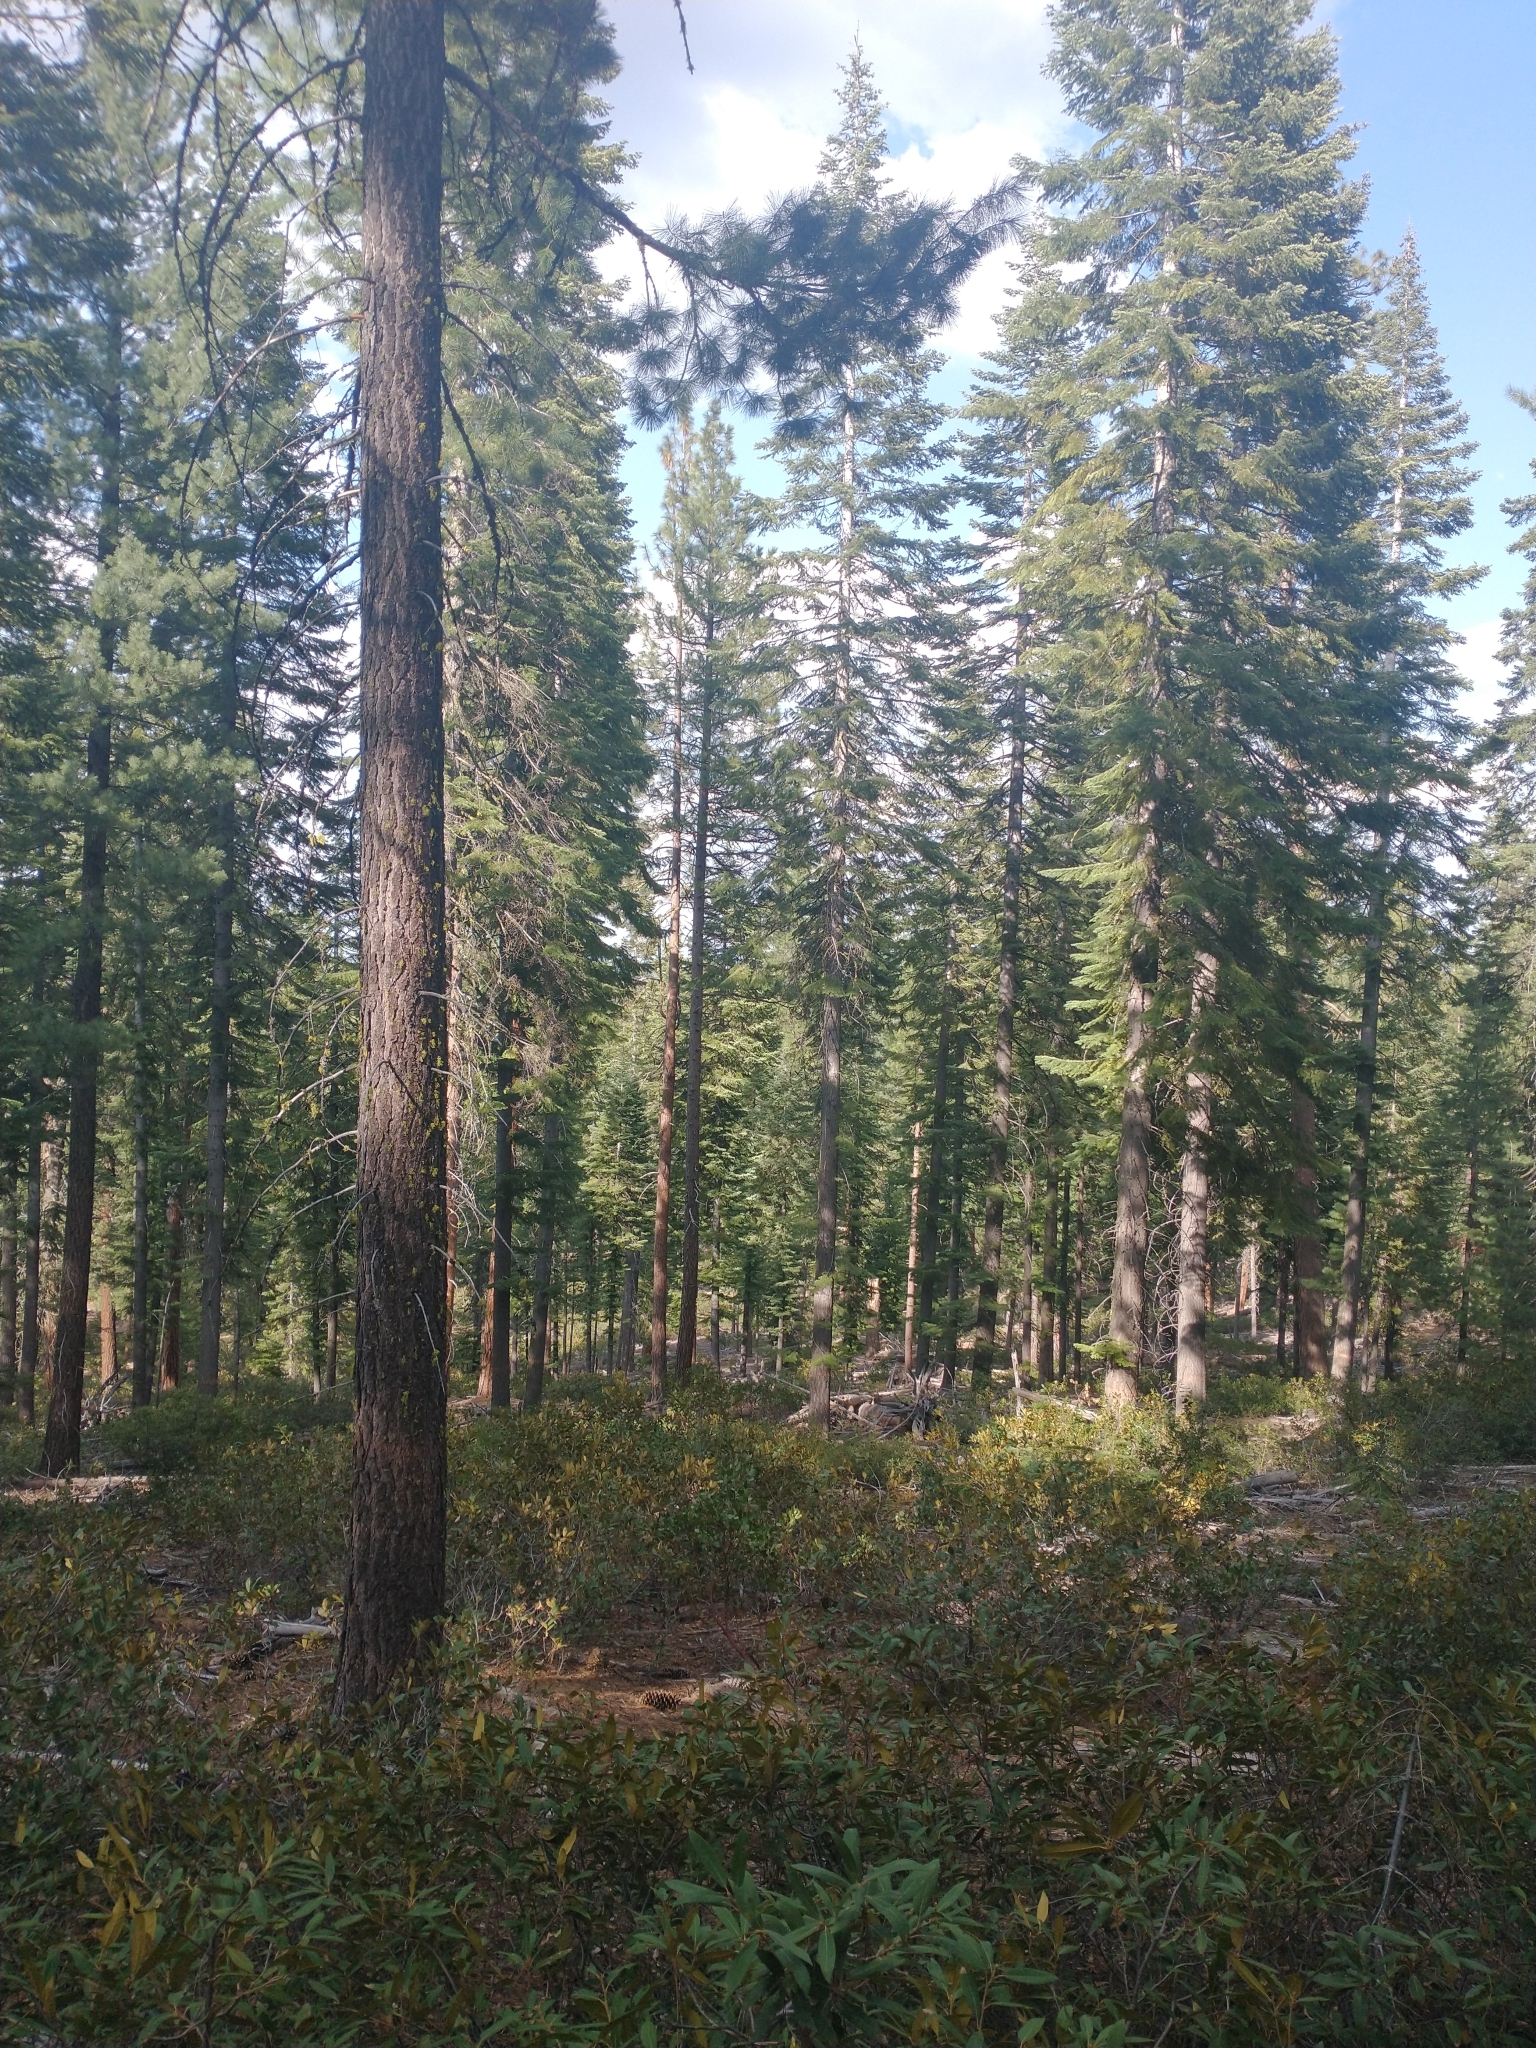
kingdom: Plantae
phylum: Tracheophyta
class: Pinopsida
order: Pinales
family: Pinaceae
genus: Pinus
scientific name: Pinus lambertiana
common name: Sugar pine
